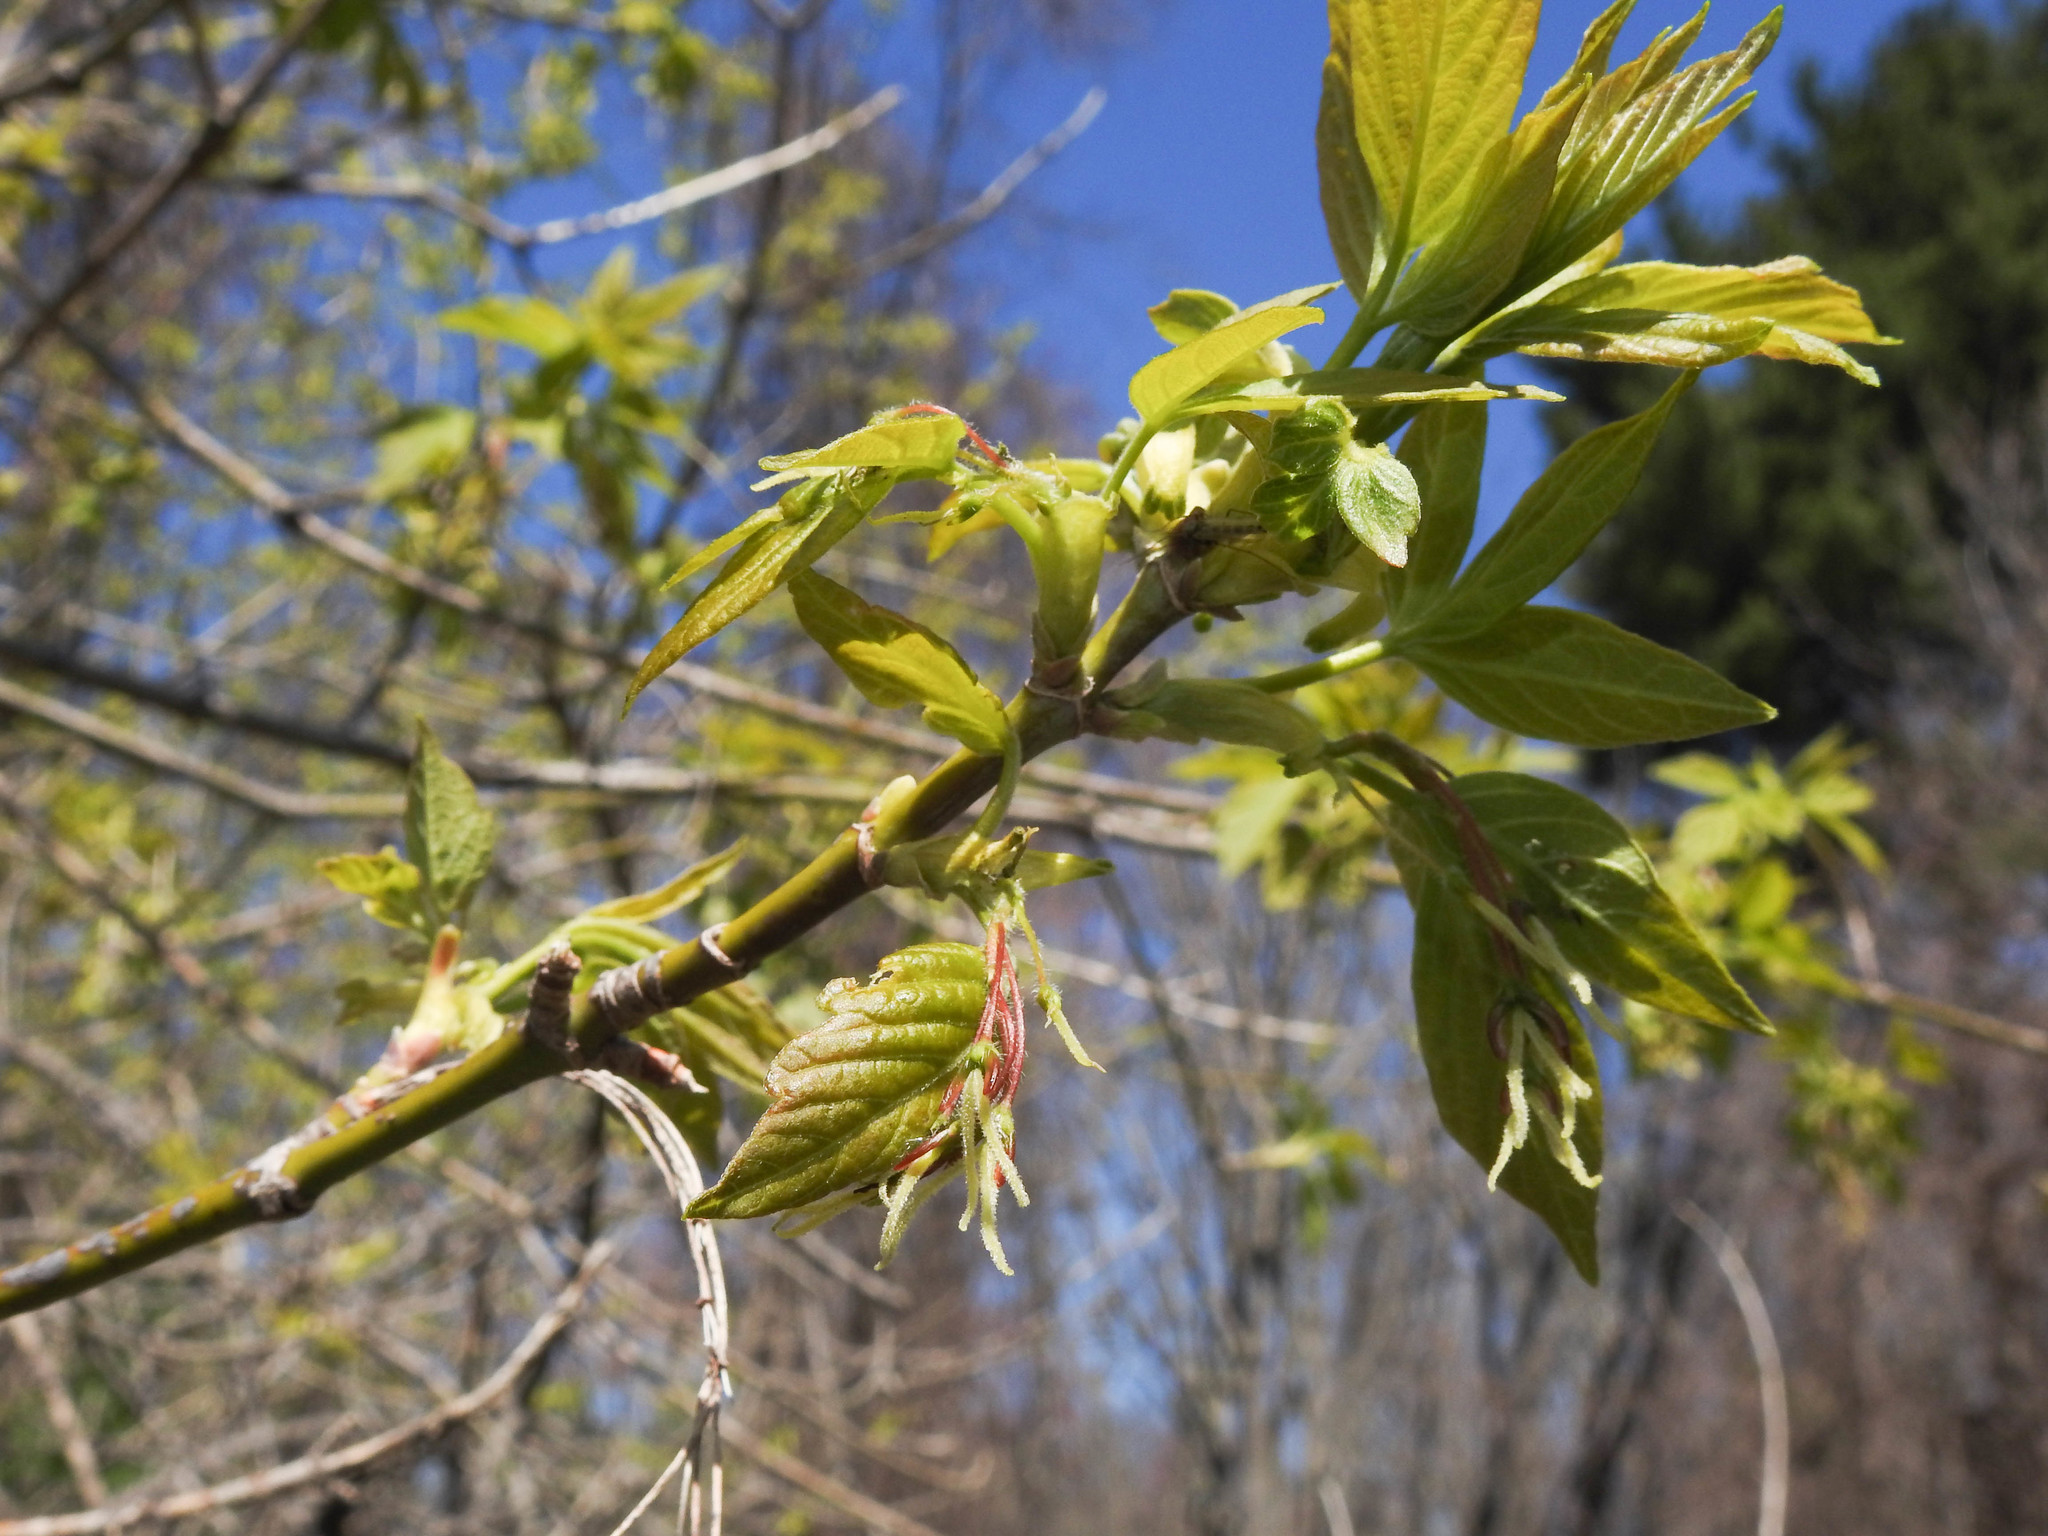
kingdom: Plantae
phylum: Tracheophyta
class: Magnoliopsida
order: Sapindales
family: Sapindaceae
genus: Acer
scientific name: Acer negundo
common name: Ashleaf maple
